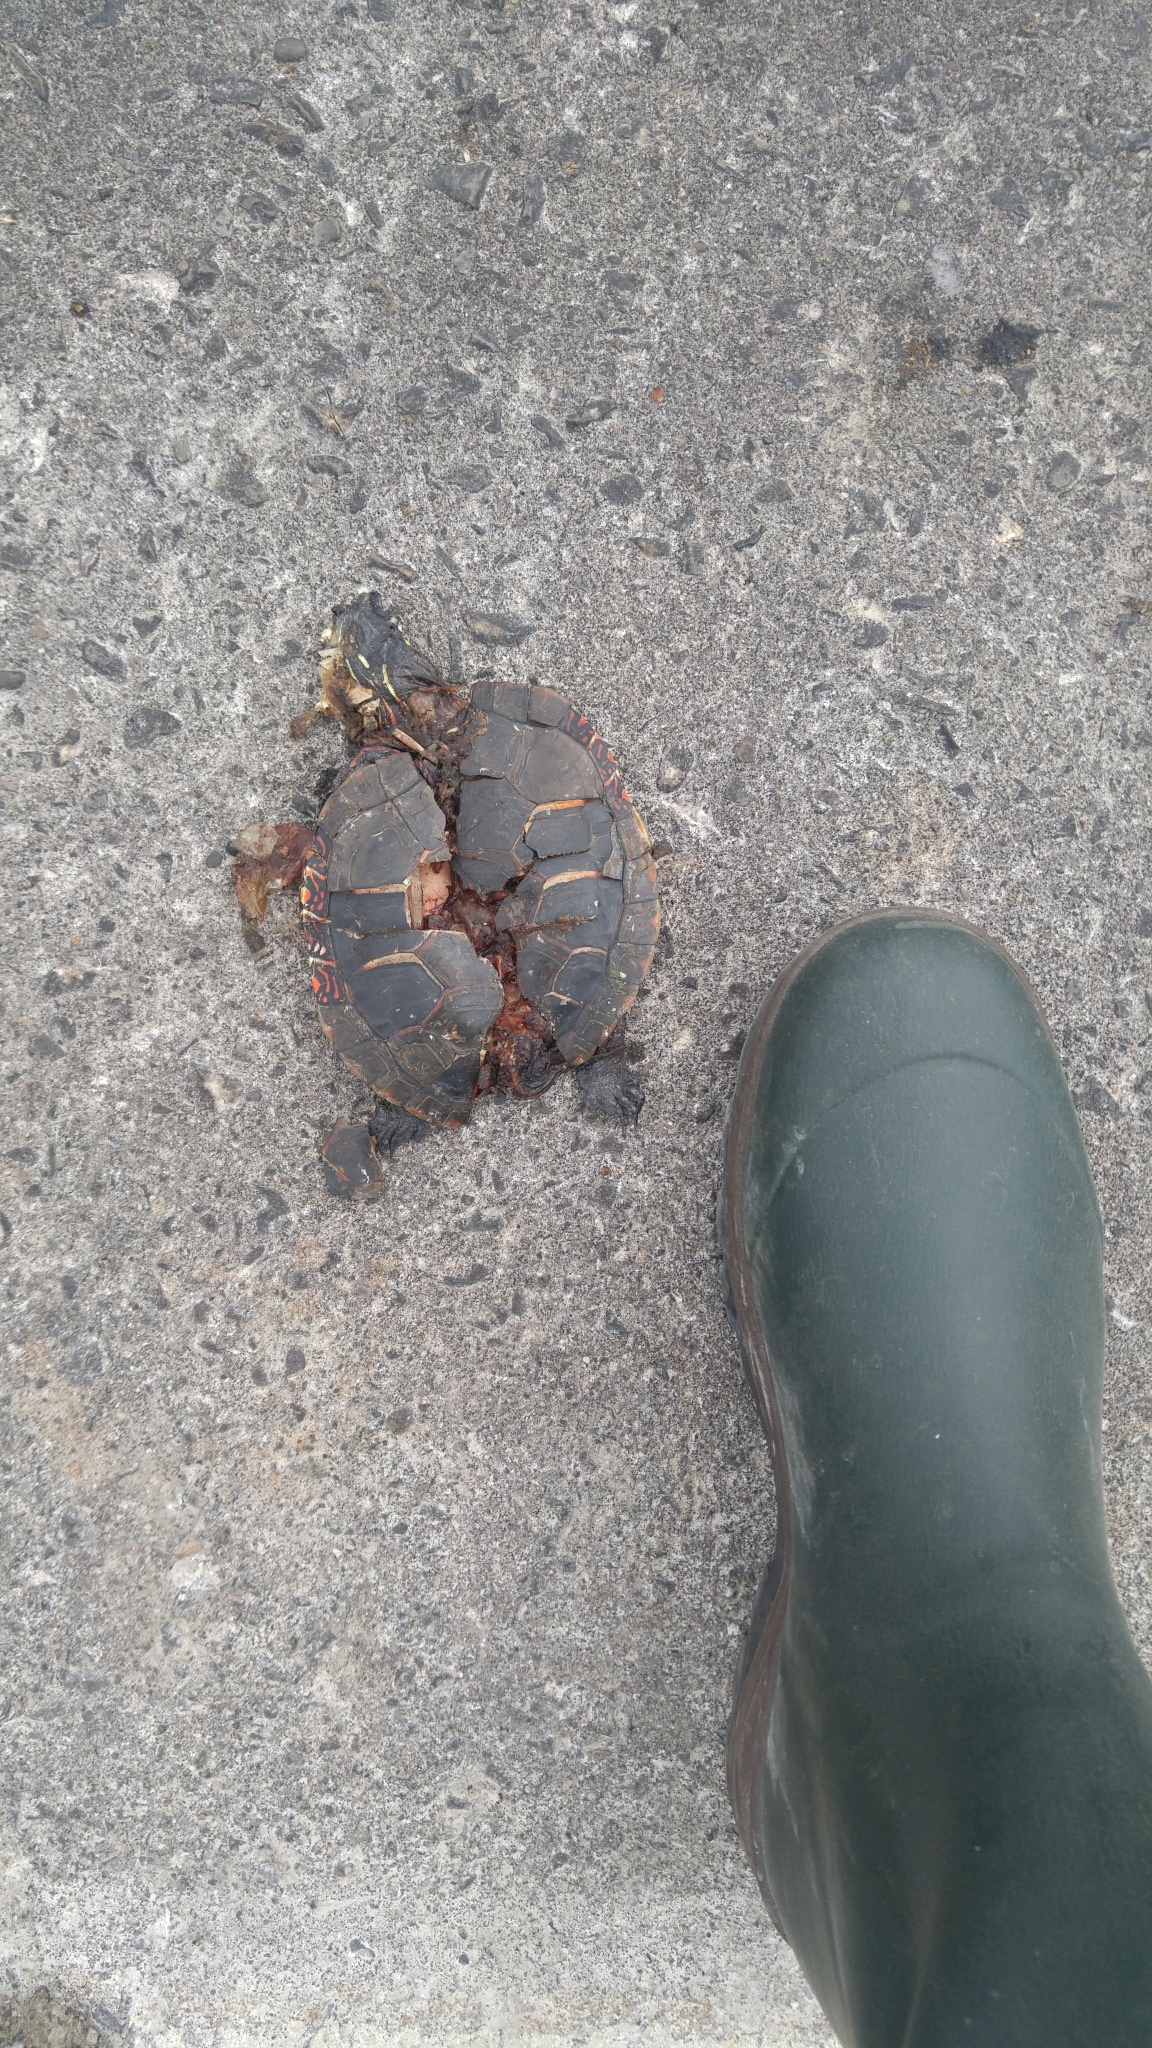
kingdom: Animalia
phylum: Chordata
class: Testudines
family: Emydidae
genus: Chrysemys
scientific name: Chrysemys picta
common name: Painted turtle
